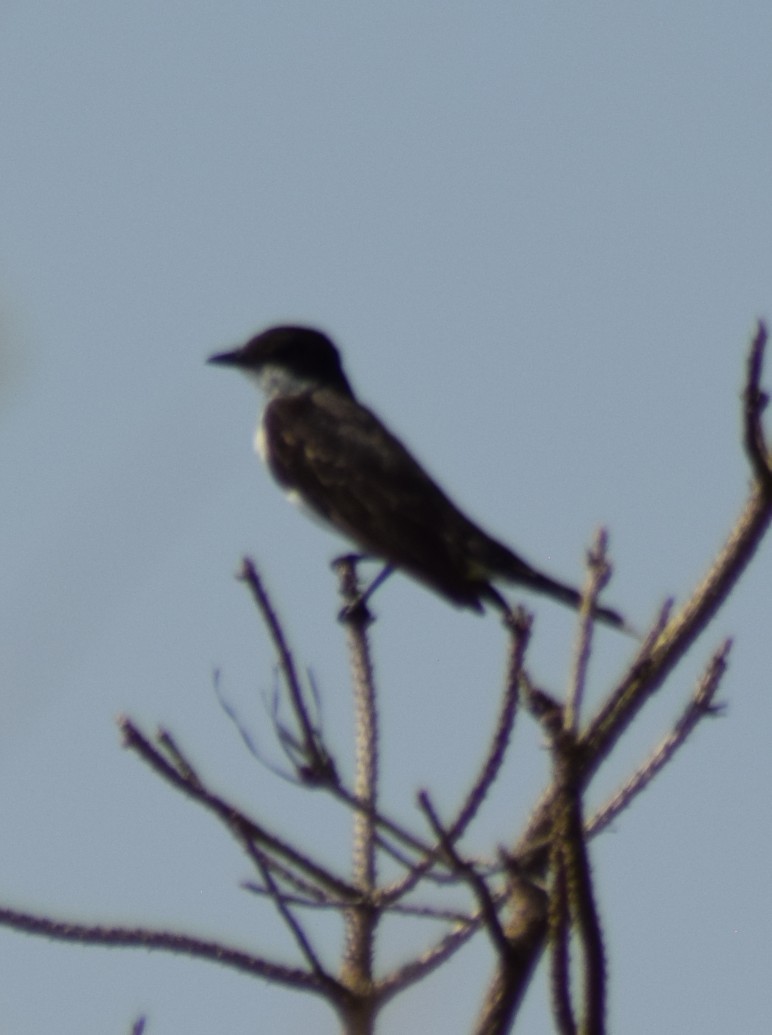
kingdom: Animalia
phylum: Chordata
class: Aves
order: Passeriformes
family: Tyrannidae
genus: Tyrannus
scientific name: Tyrannus tyrannus
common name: Eastern kingbird
